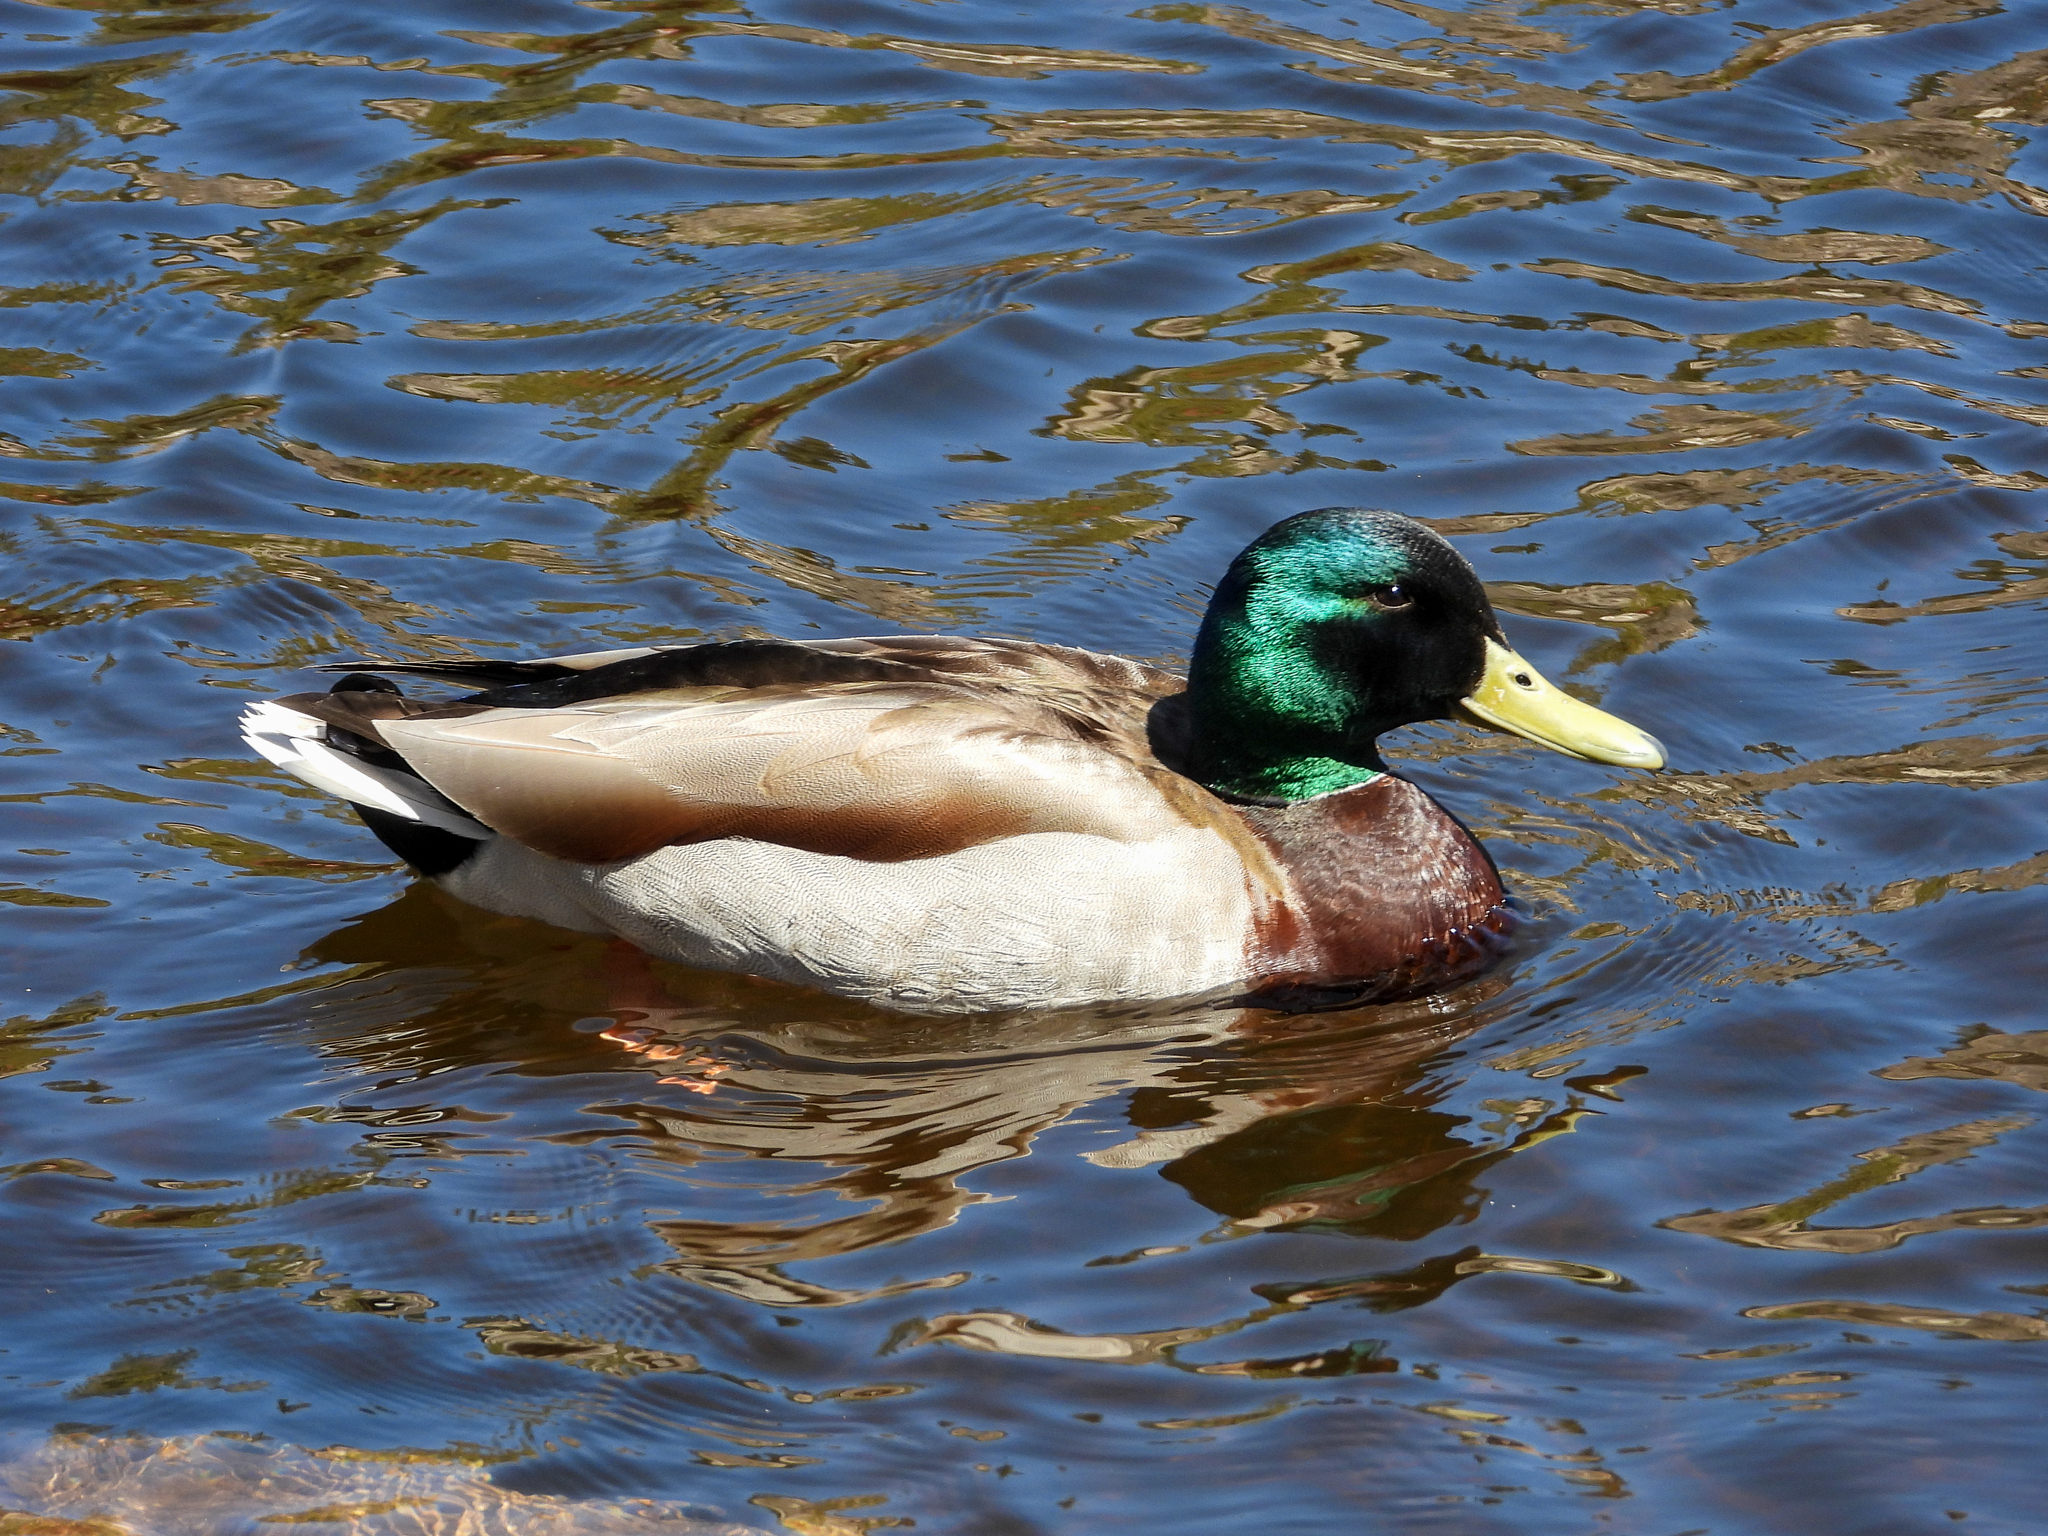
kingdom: Animalia
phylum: Chordata
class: Aves
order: Anseriformes
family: Anatidae
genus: Anas
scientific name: Anas platyrhynchos
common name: Mallard
